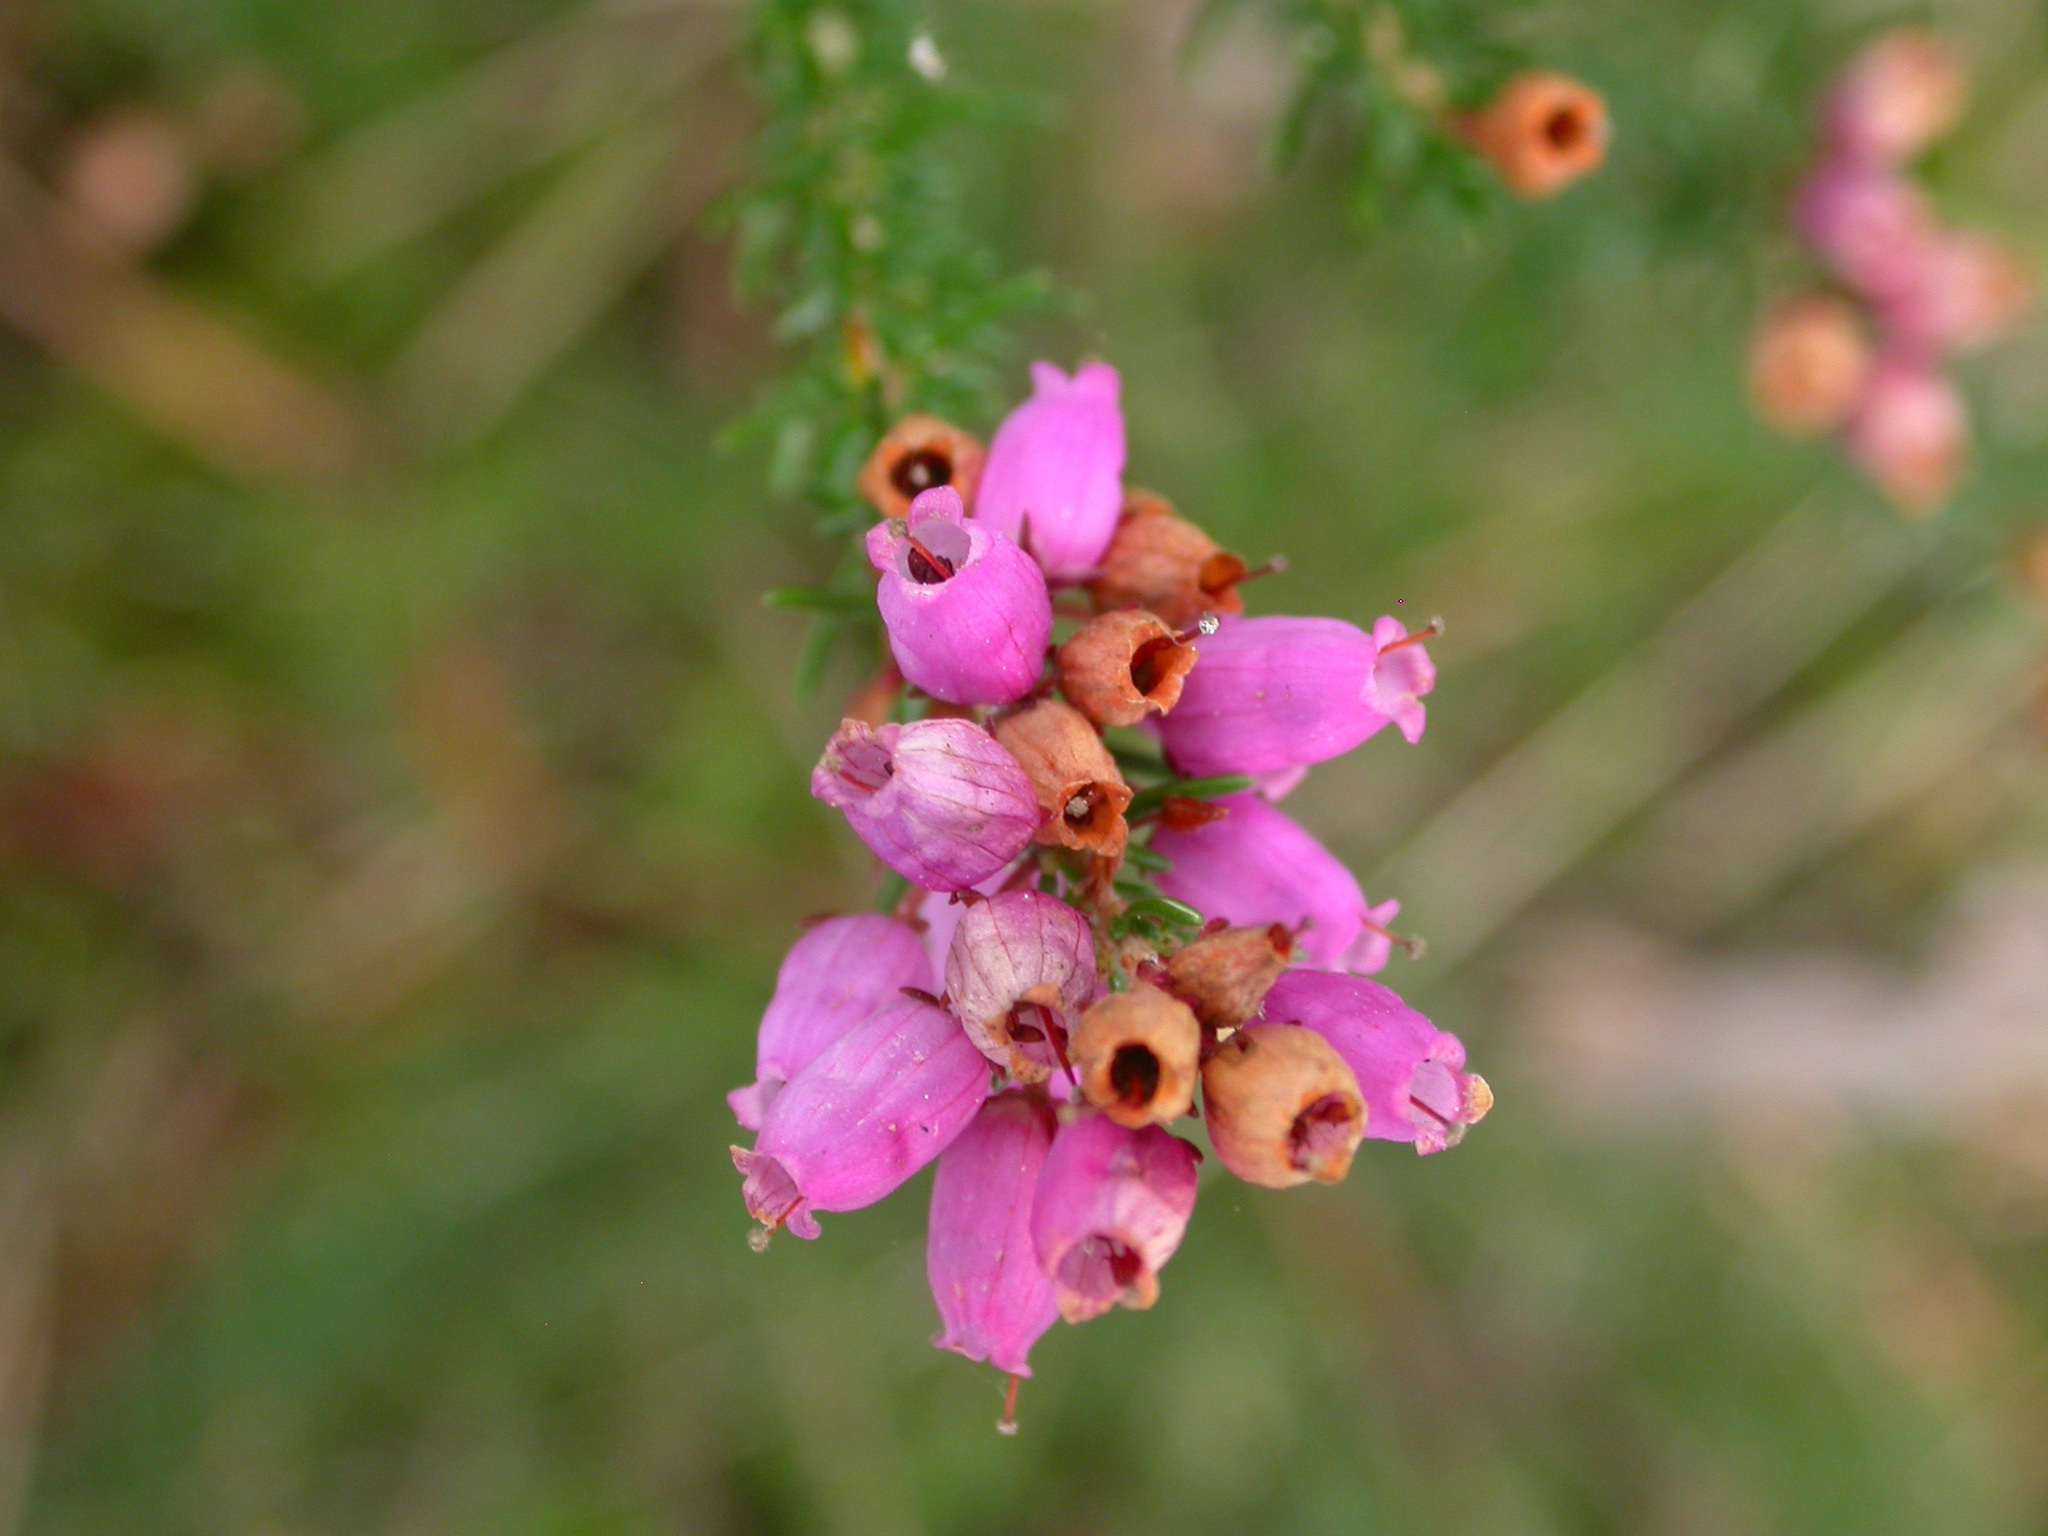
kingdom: Plantae
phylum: Tracheophyta
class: Magnoliopsida
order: Ericales
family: Ericaceae
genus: Erica
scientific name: Erica cinerea
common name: Bell heather
